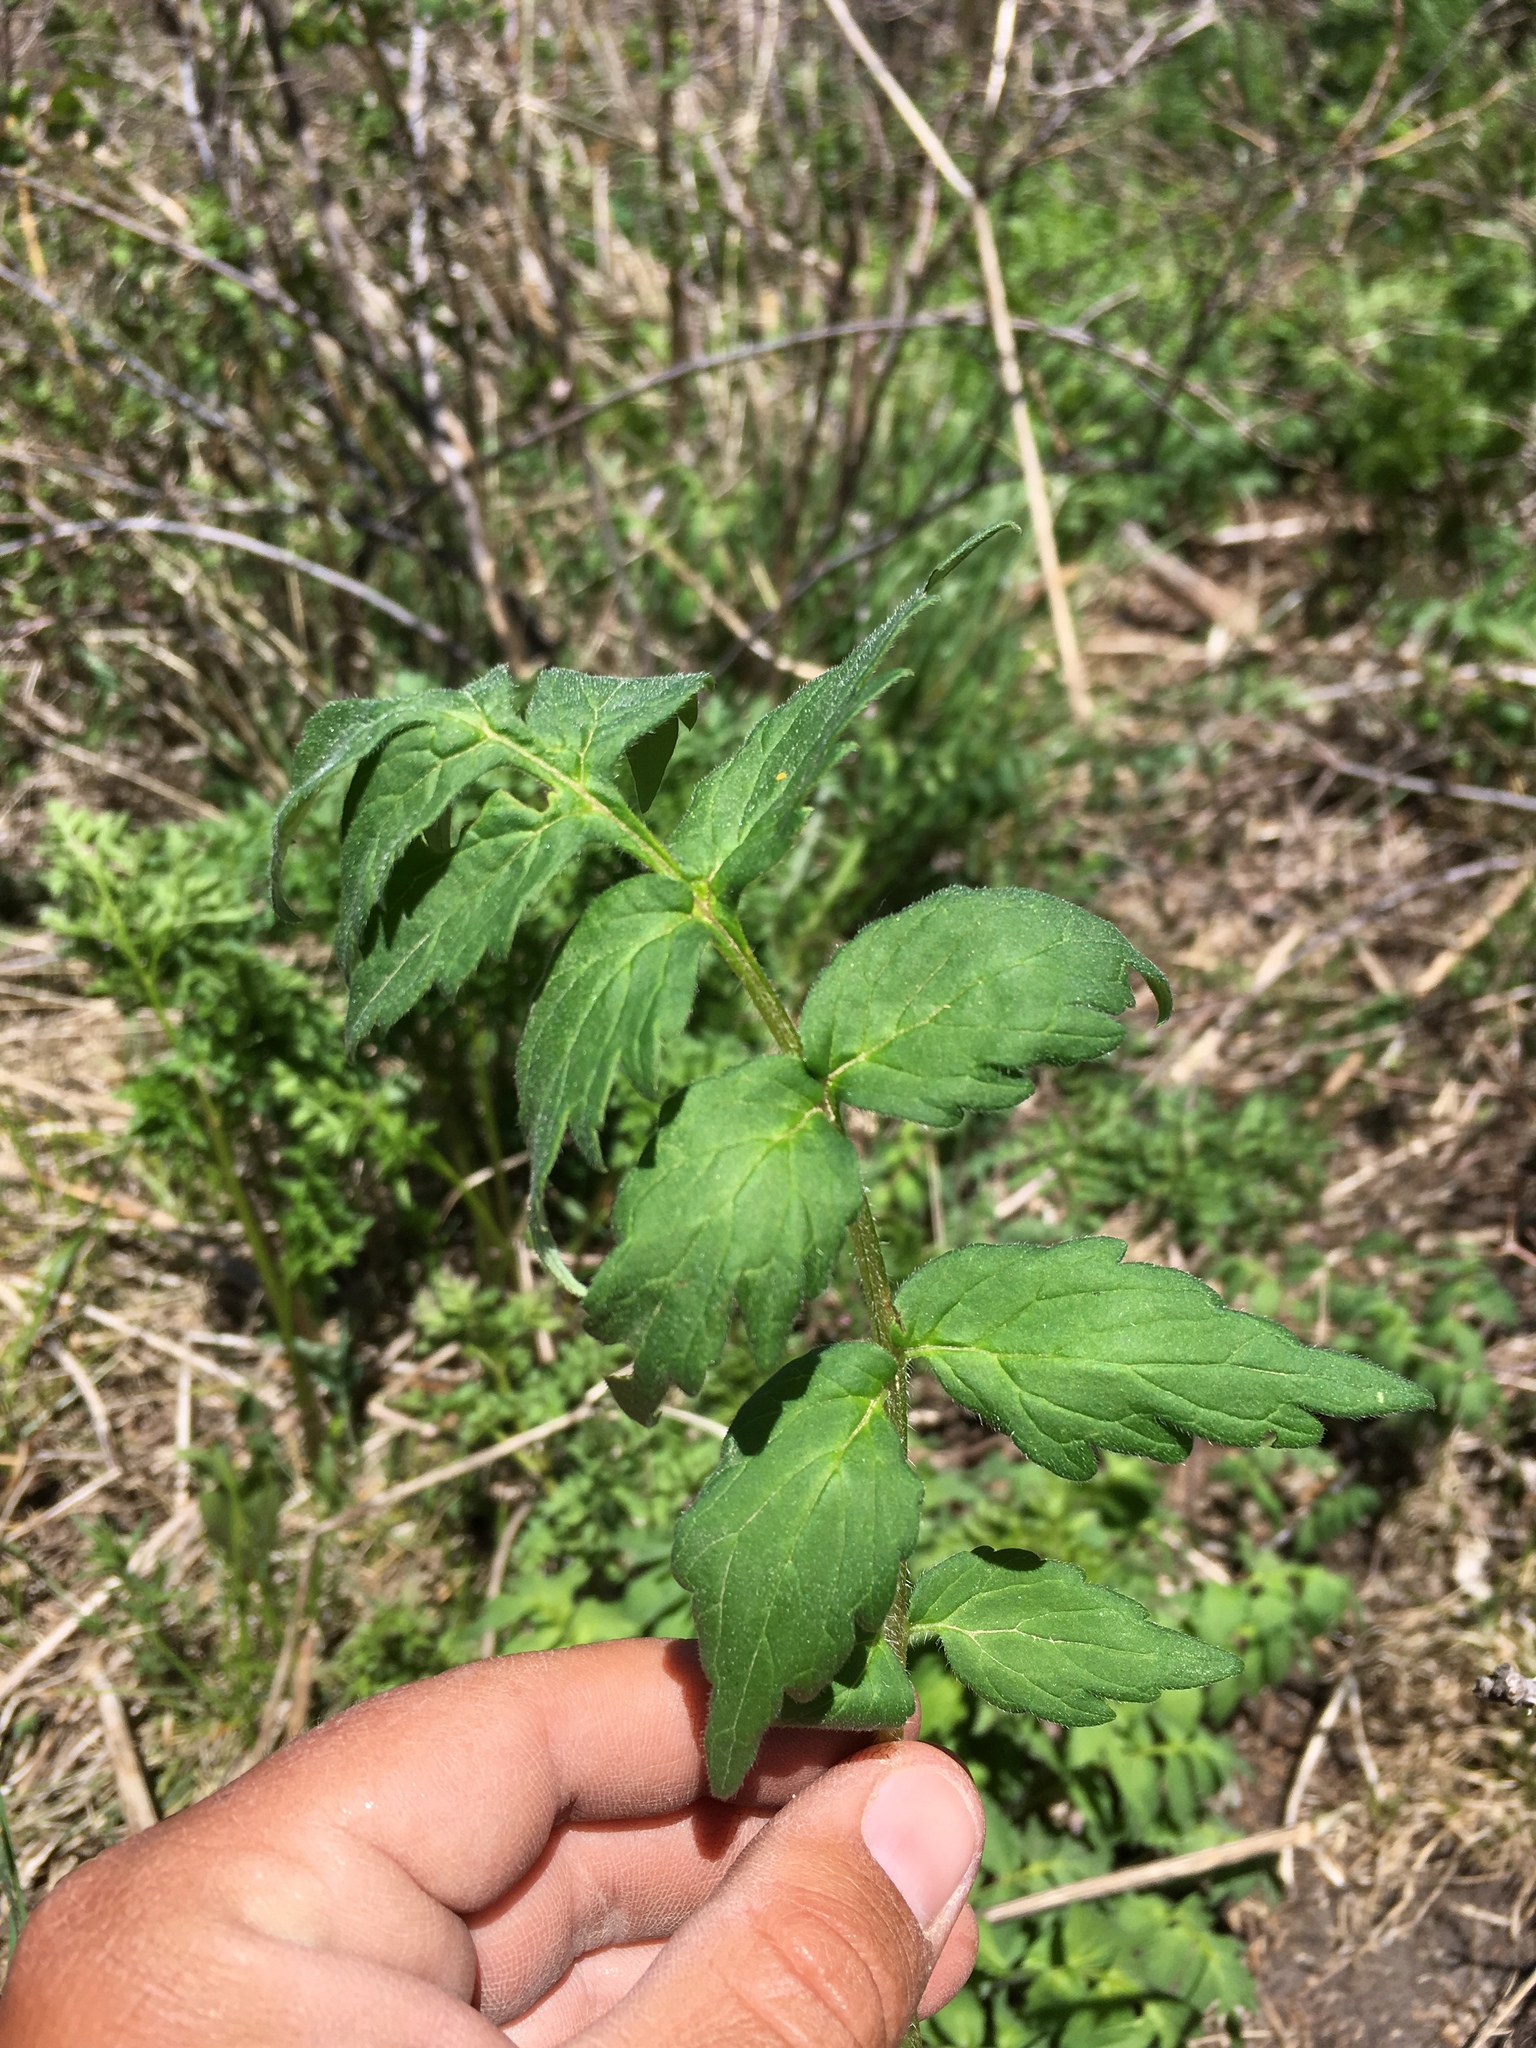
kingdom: Plantae
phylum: Tracheophyta
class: Magnoliopsida
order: Boraginales
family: Hydrophyllaceae
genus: Hydrophyllum
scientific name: Hydrophyllum fendleri
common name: Fendler's waterleaf
